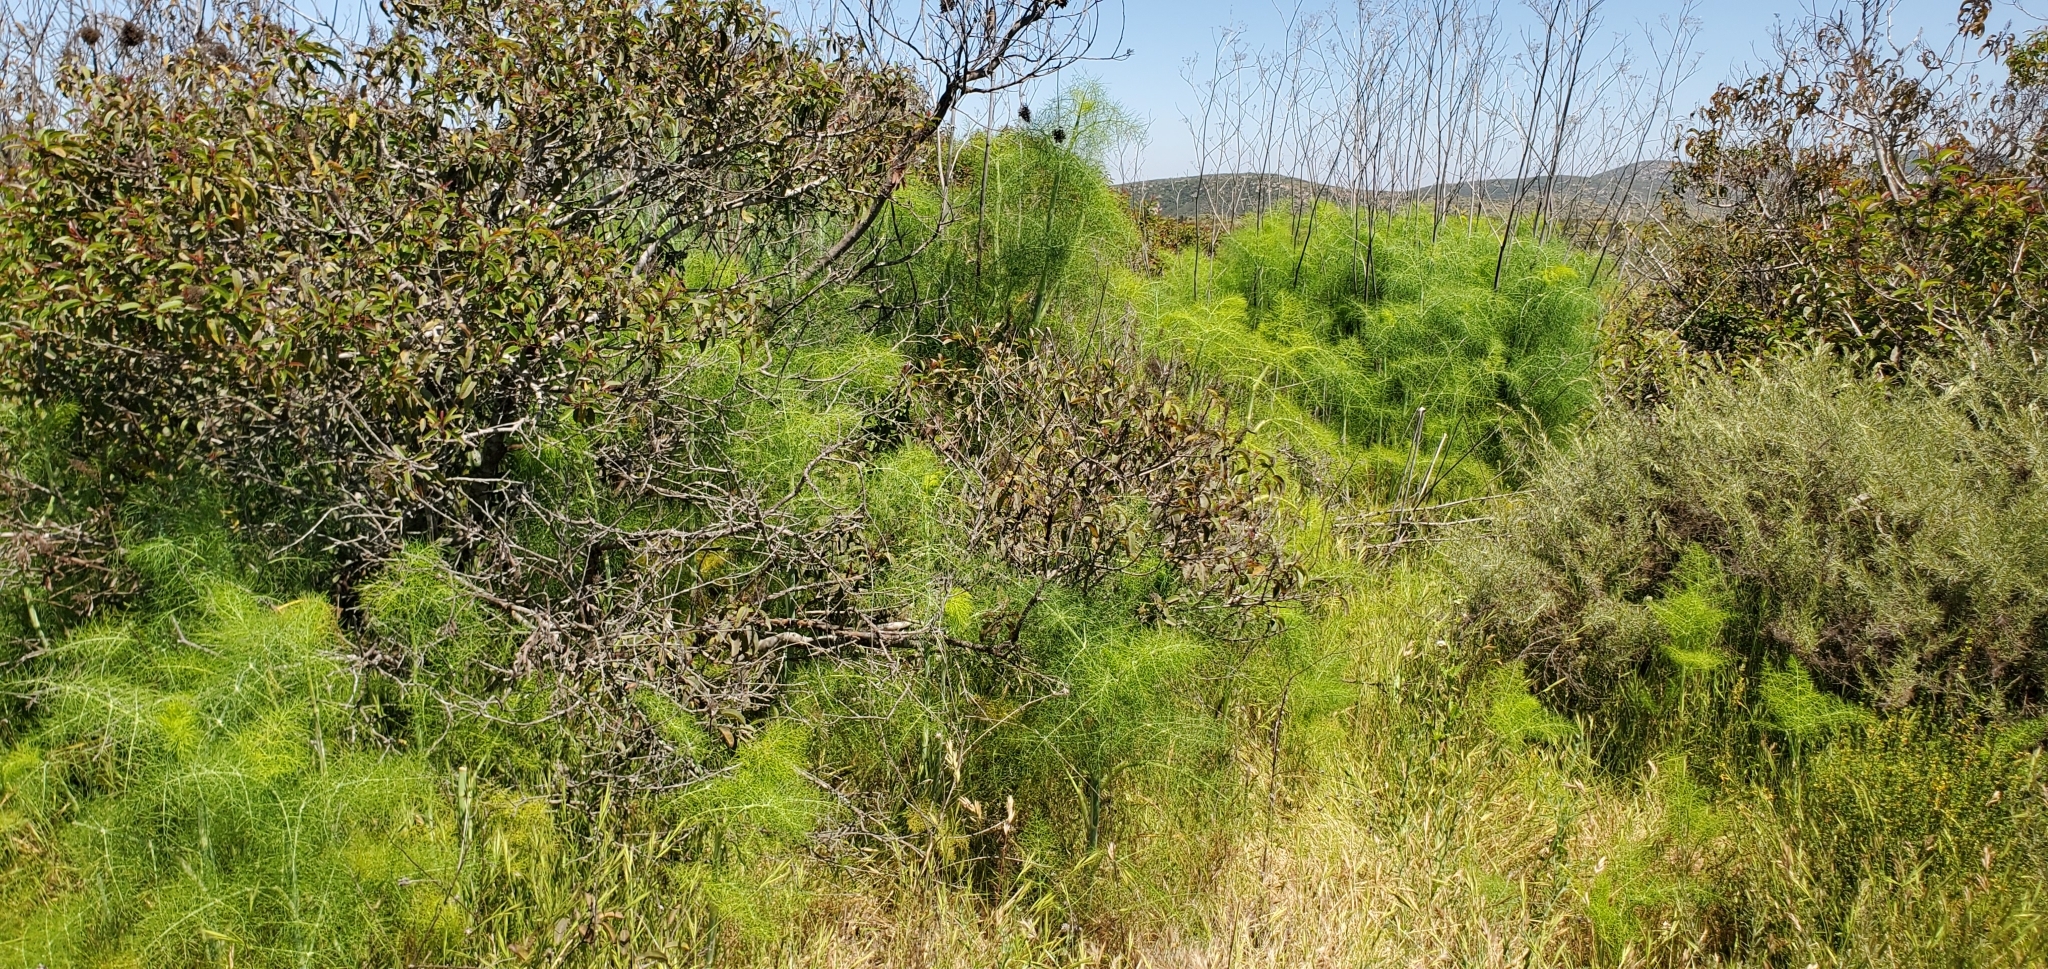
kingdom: Plantae
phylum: Tracheophyta
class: Magnoliopsida
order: Apiales
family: Apiaceae
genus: Foeniculum
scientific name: Foeniculum vulgare
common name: Fennel
